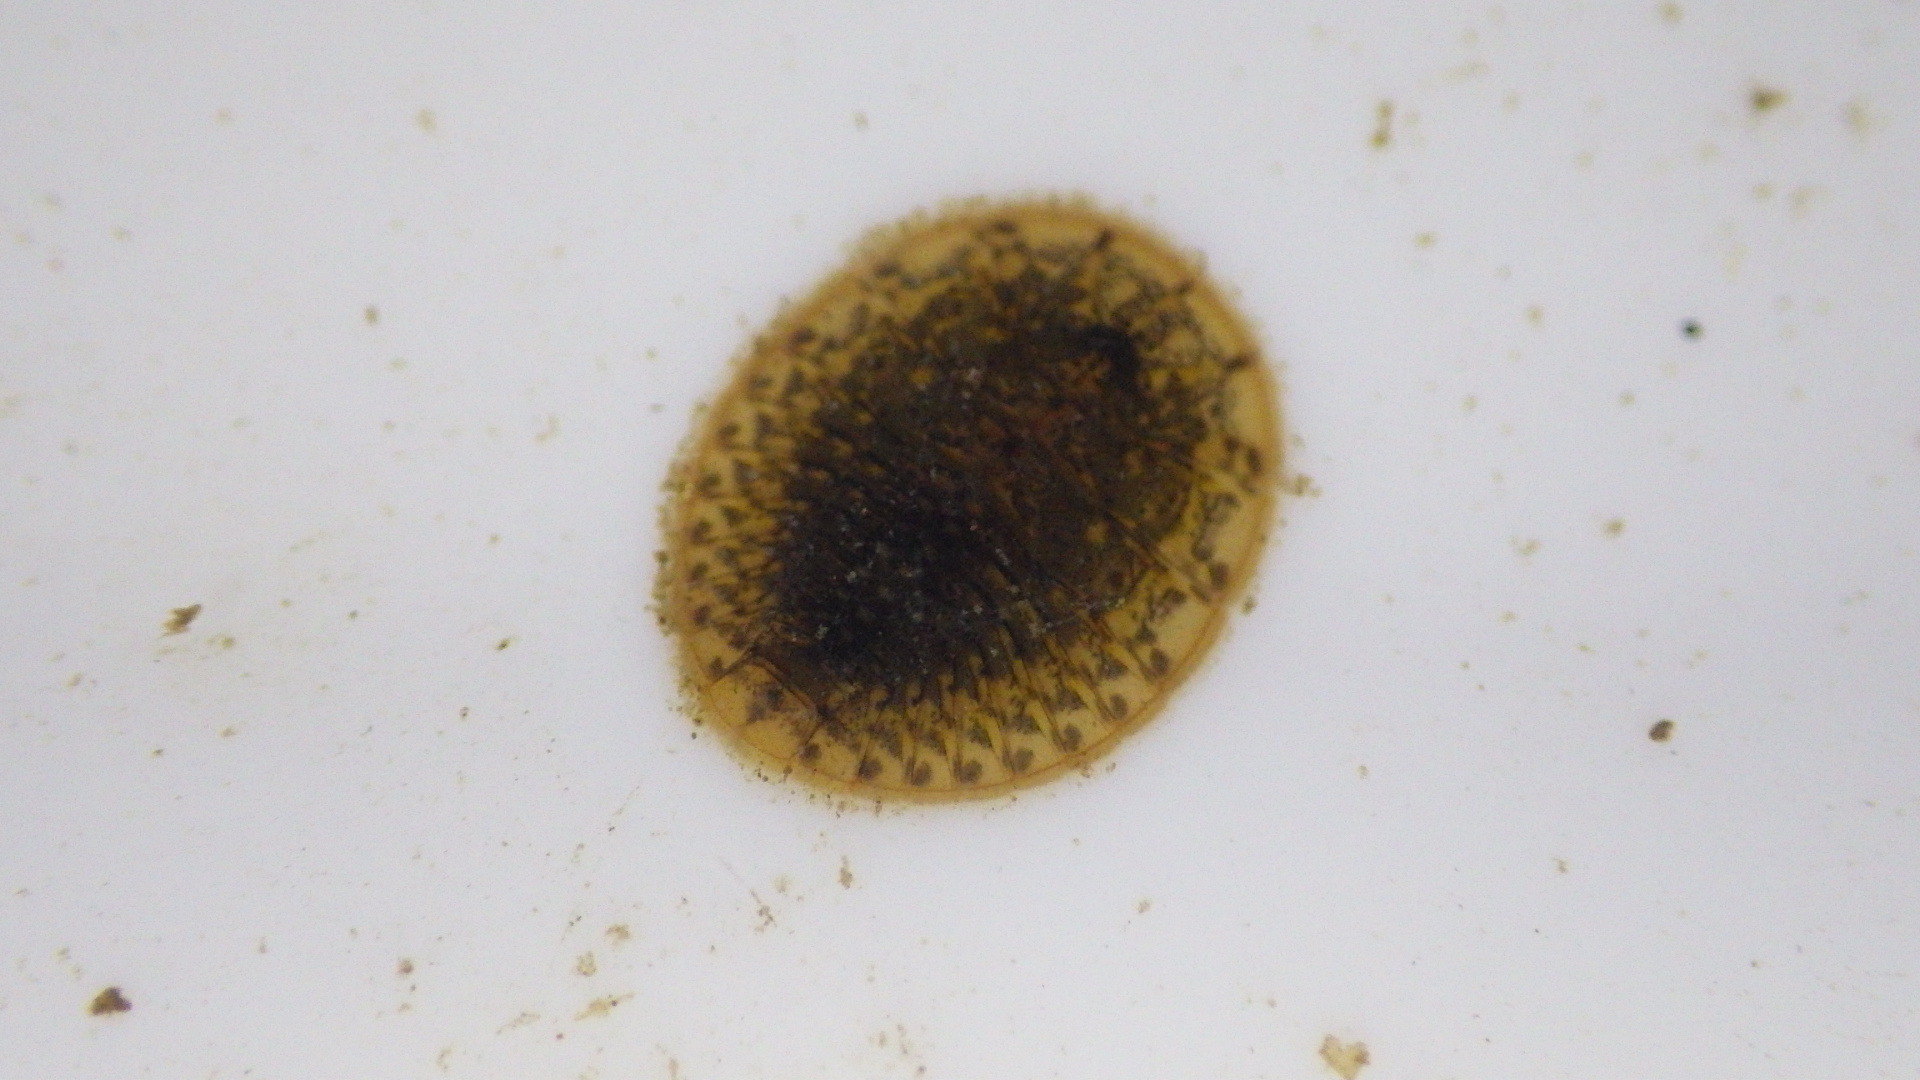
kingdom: Animalia
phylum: Arthropoda
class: Insecta
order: Coleoptera
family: Psephenidae
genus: Psephenus
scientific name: Psephenus herricki
